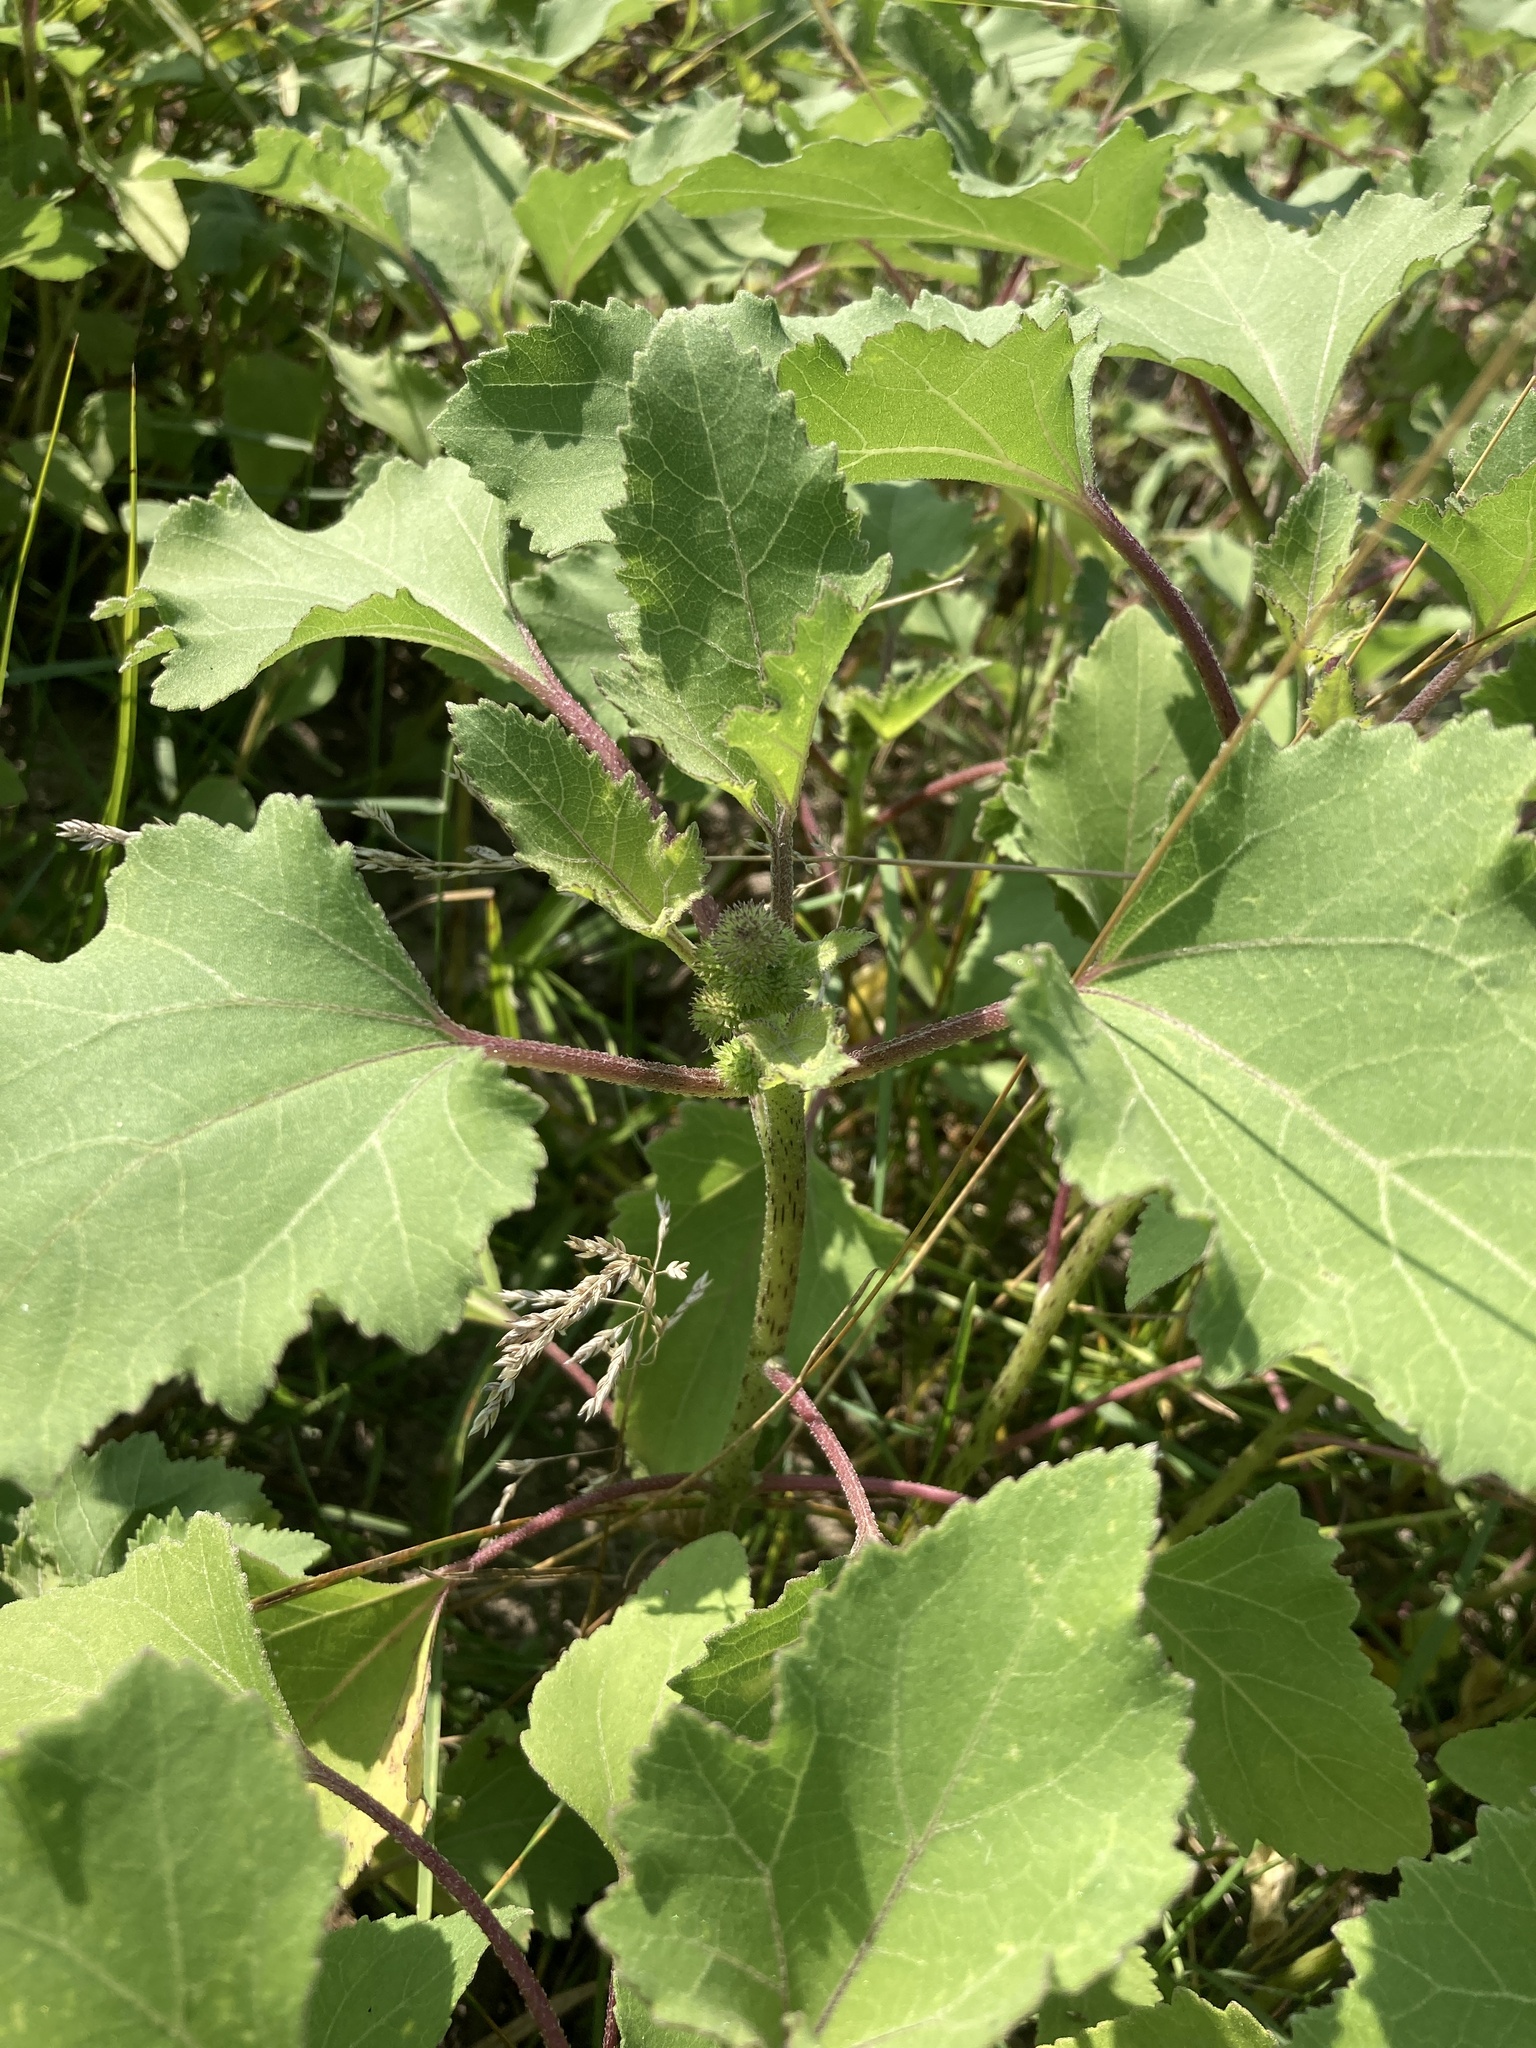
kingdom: Plantae
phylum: Tracheophyta
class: Magnoliopsida
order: Asterales
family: Asteraceae
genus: Xanthium
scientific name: Xanthium orientale
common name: Californian burr
